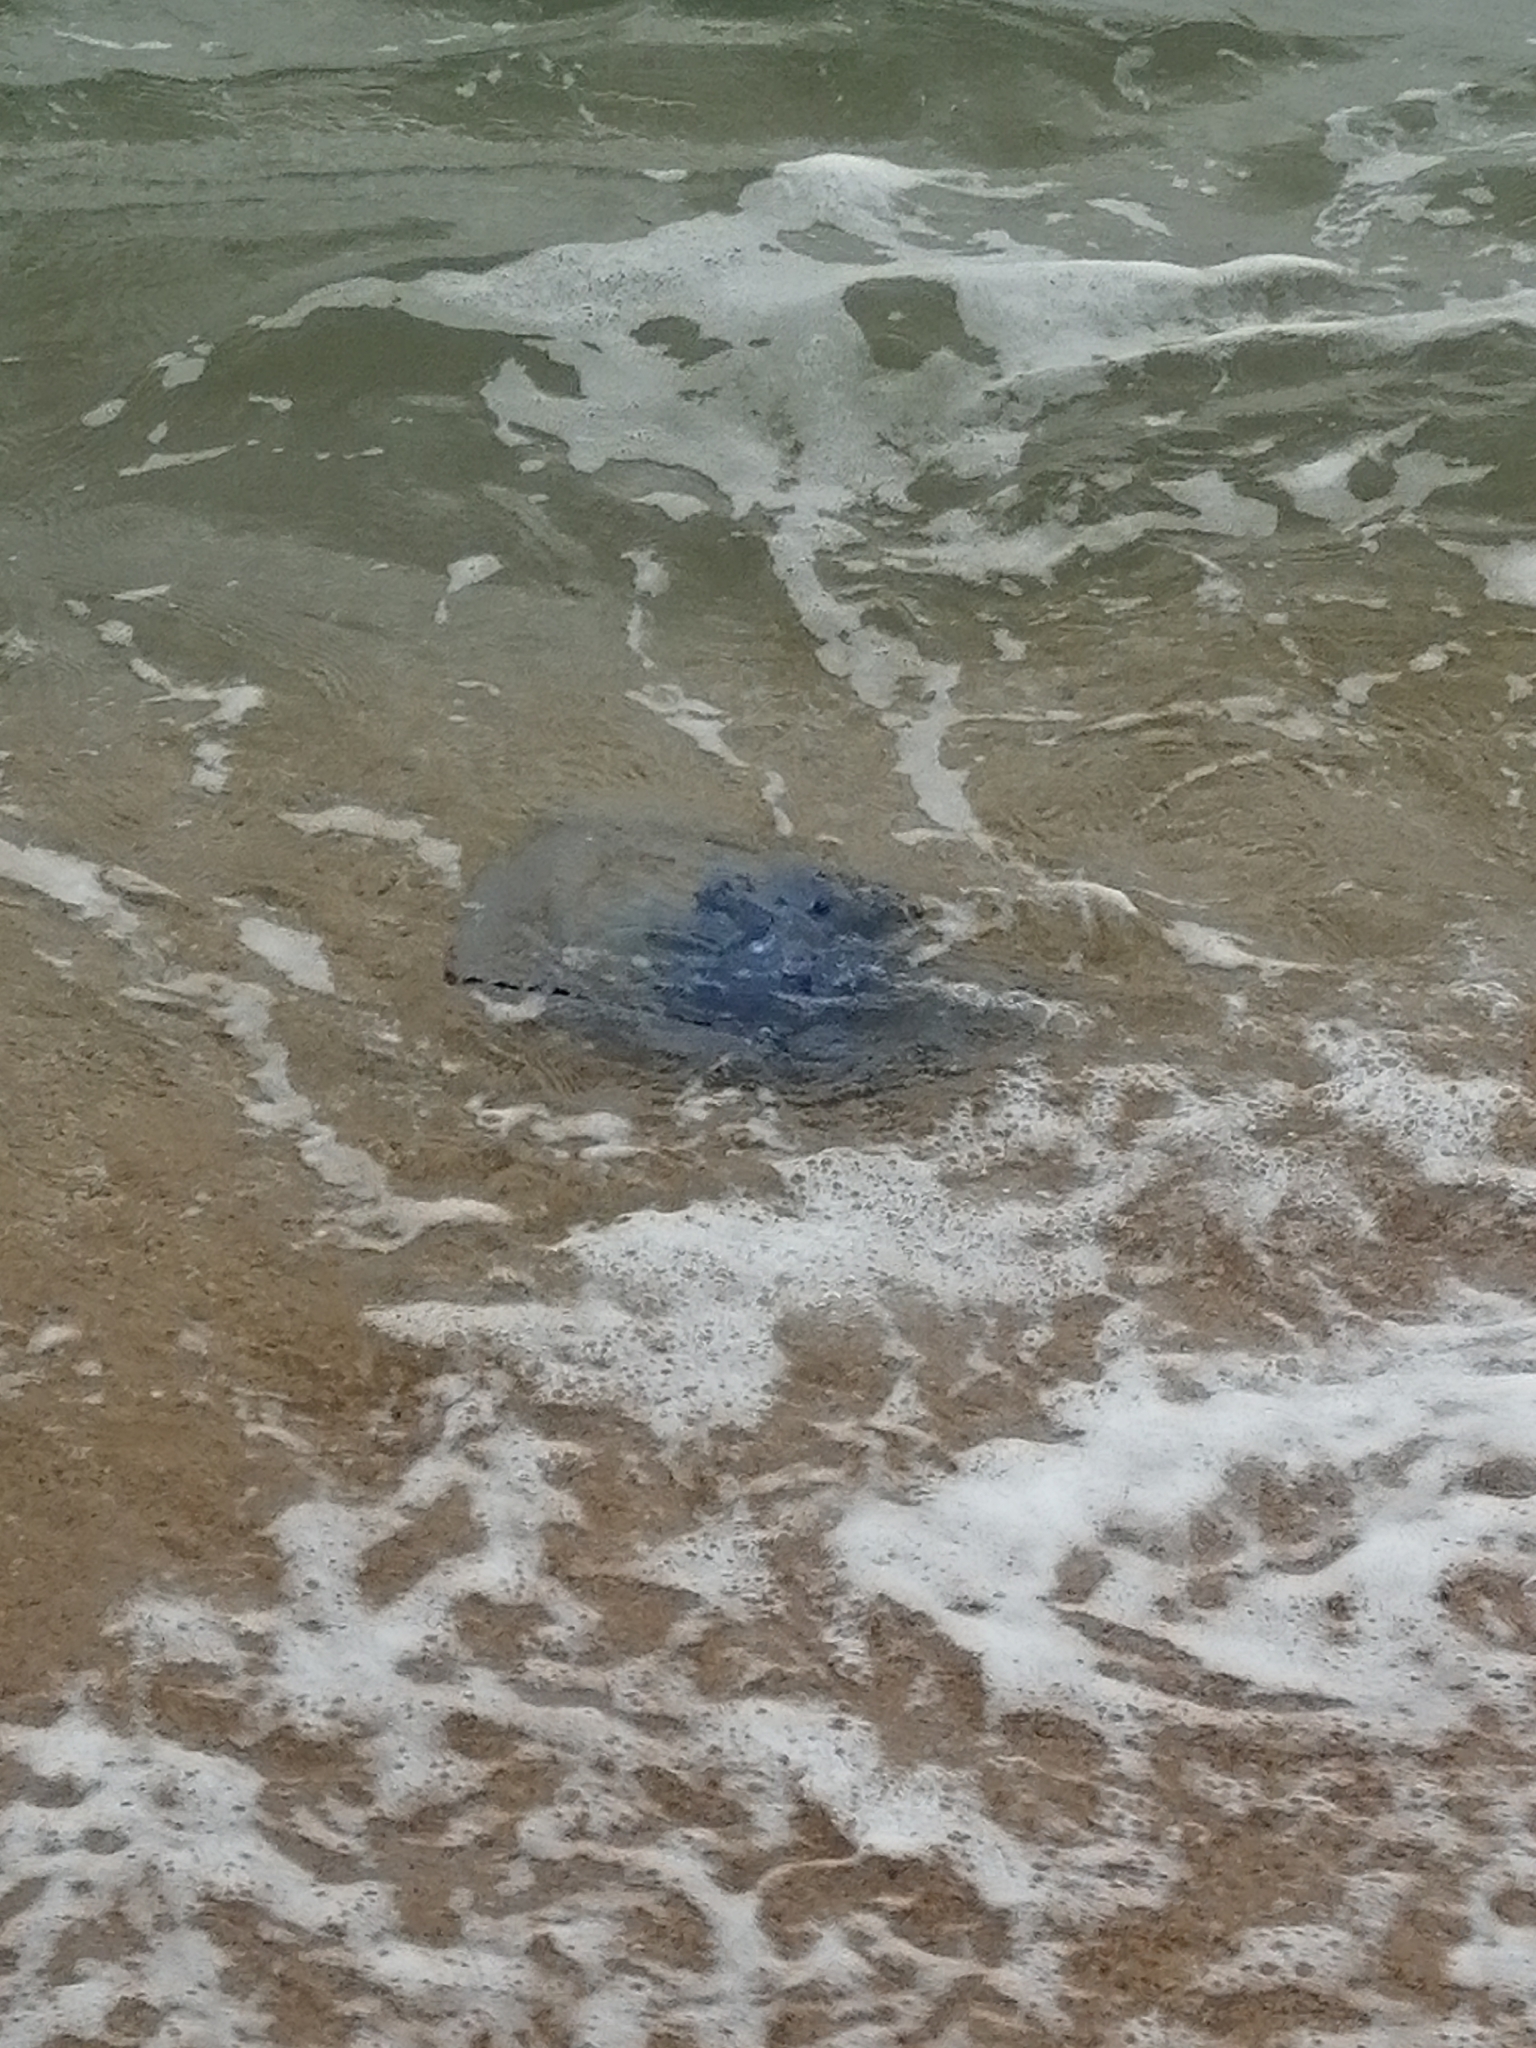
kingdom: Animalia
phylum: Cnidaria
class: Scyphozoa
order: Rhizostomeae
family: Rhizostomatidae
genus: Rhizostoma
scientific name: Rhizostoma pulmo
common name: Barrel jellyfish
